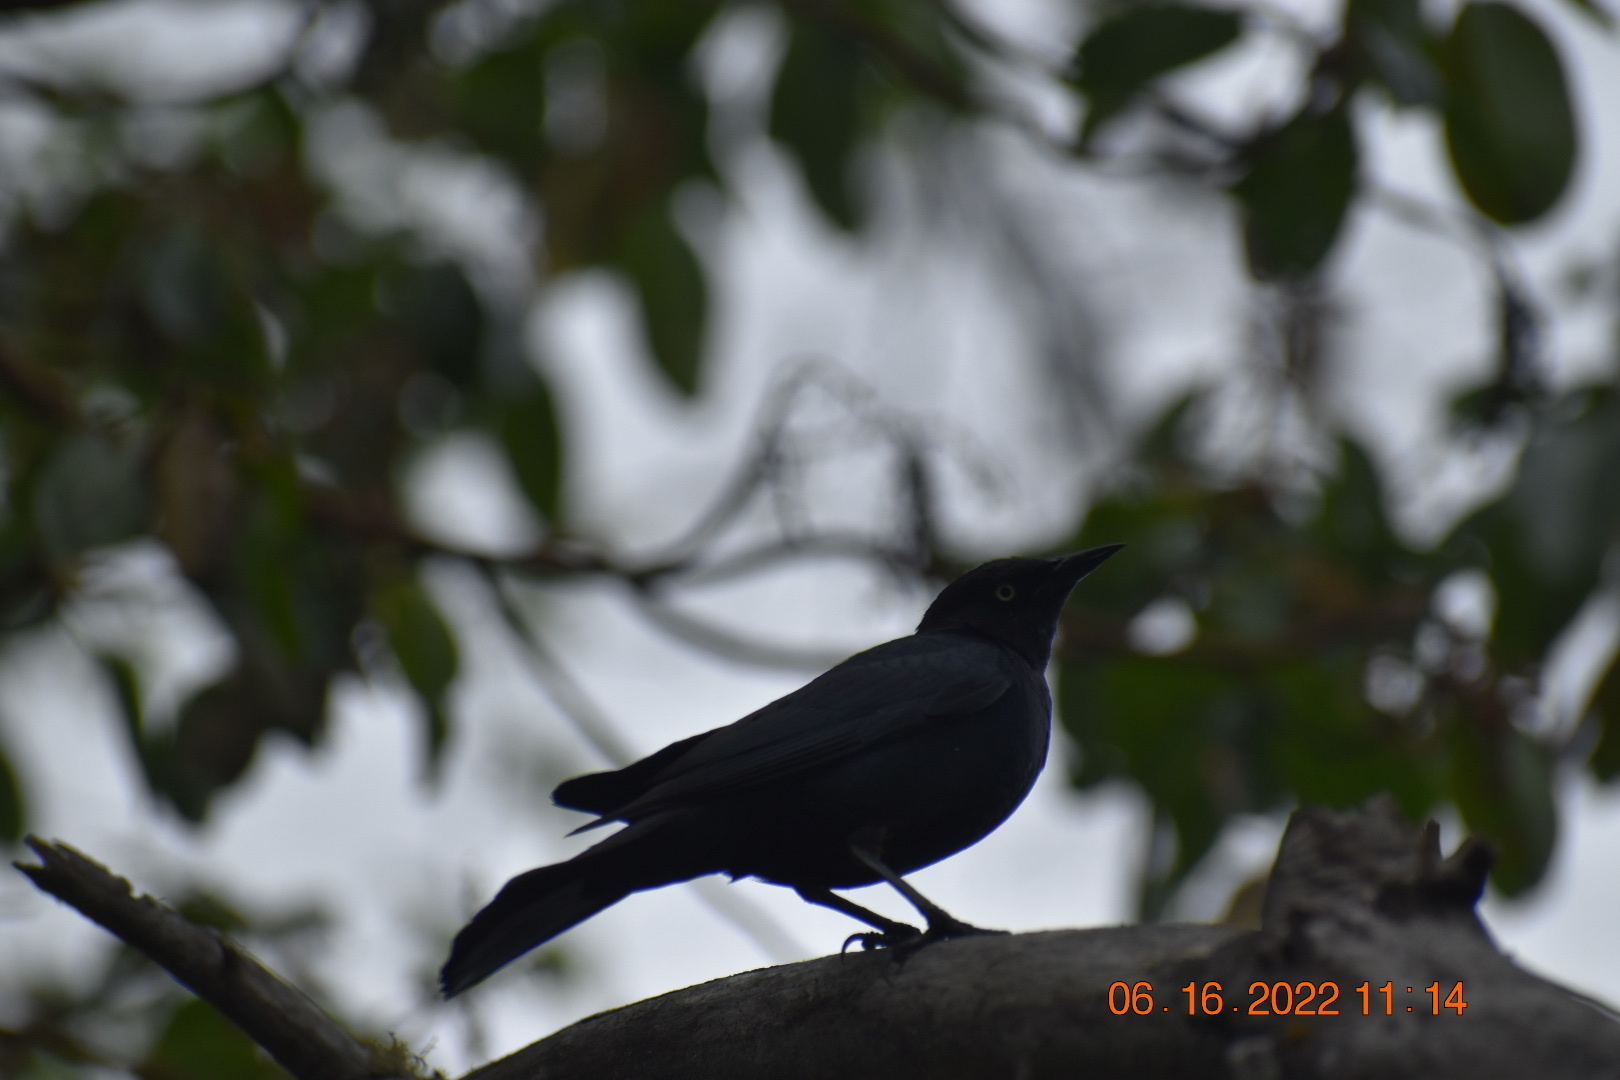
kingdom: Animalia
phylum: Chordata
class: Aves
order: Passeriformes
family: Icteridae
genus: Quiscalus
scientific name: Quiscalus mexicanus
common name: Great-tailed grackle
